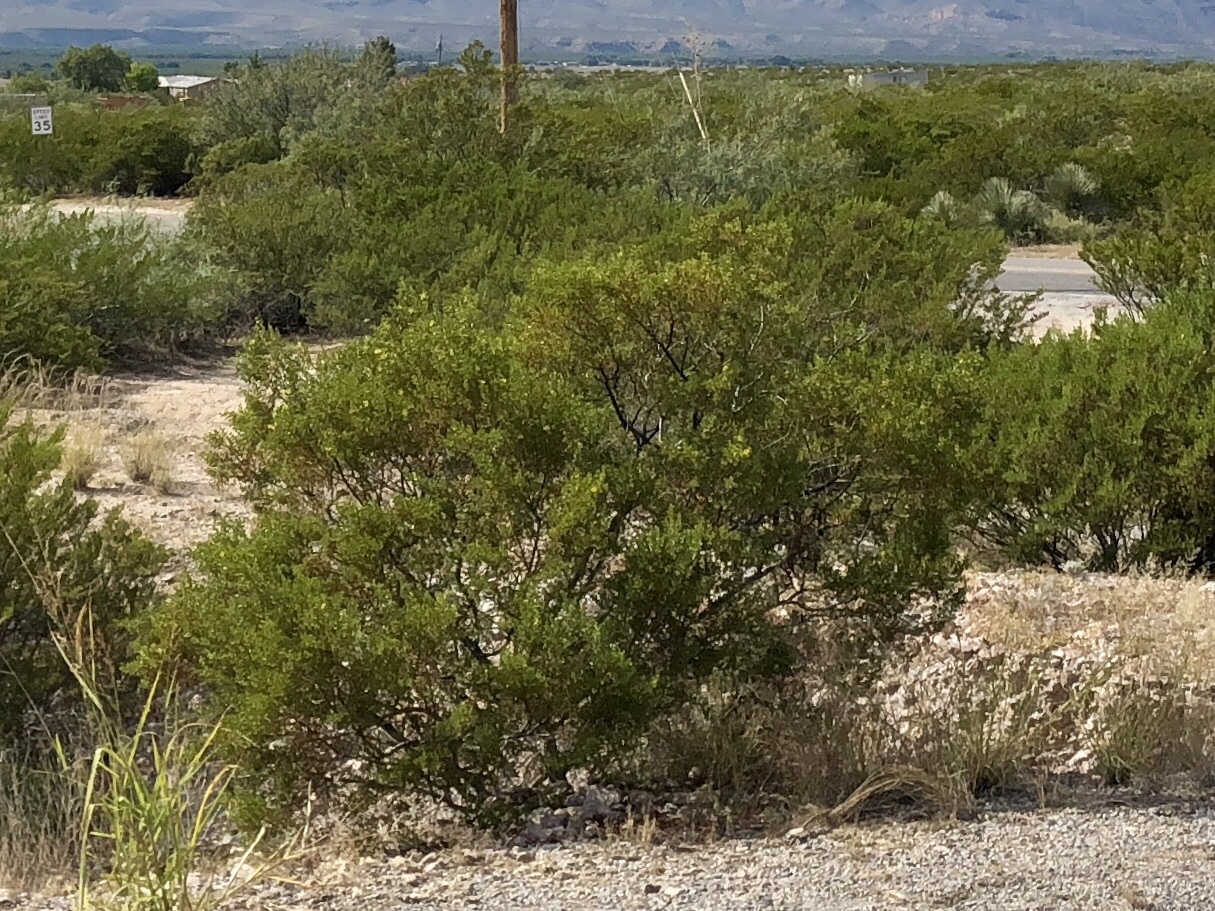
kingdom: Plantae
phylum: Tracheophyta
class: Magnoliopsida
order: Zygophyllales
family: Zygophyllaceae
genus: Larrea
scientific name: Larrea tridentata
